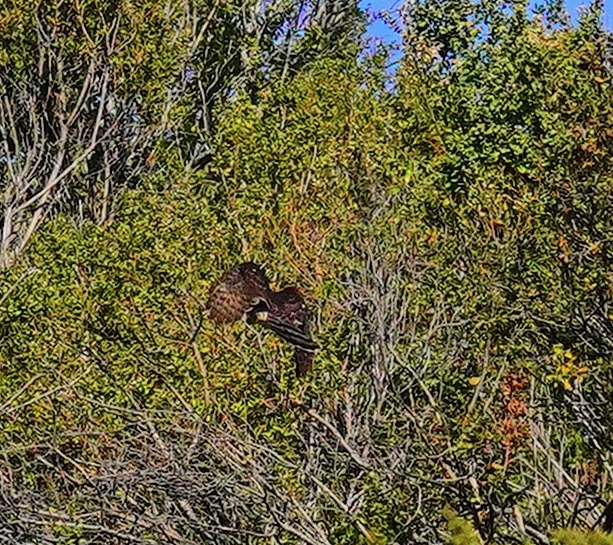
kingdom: Animalia
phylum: Chordata
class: Aves
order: Accipitriformes
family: Accipitridae
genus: Accipiter
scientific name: Accipiter
